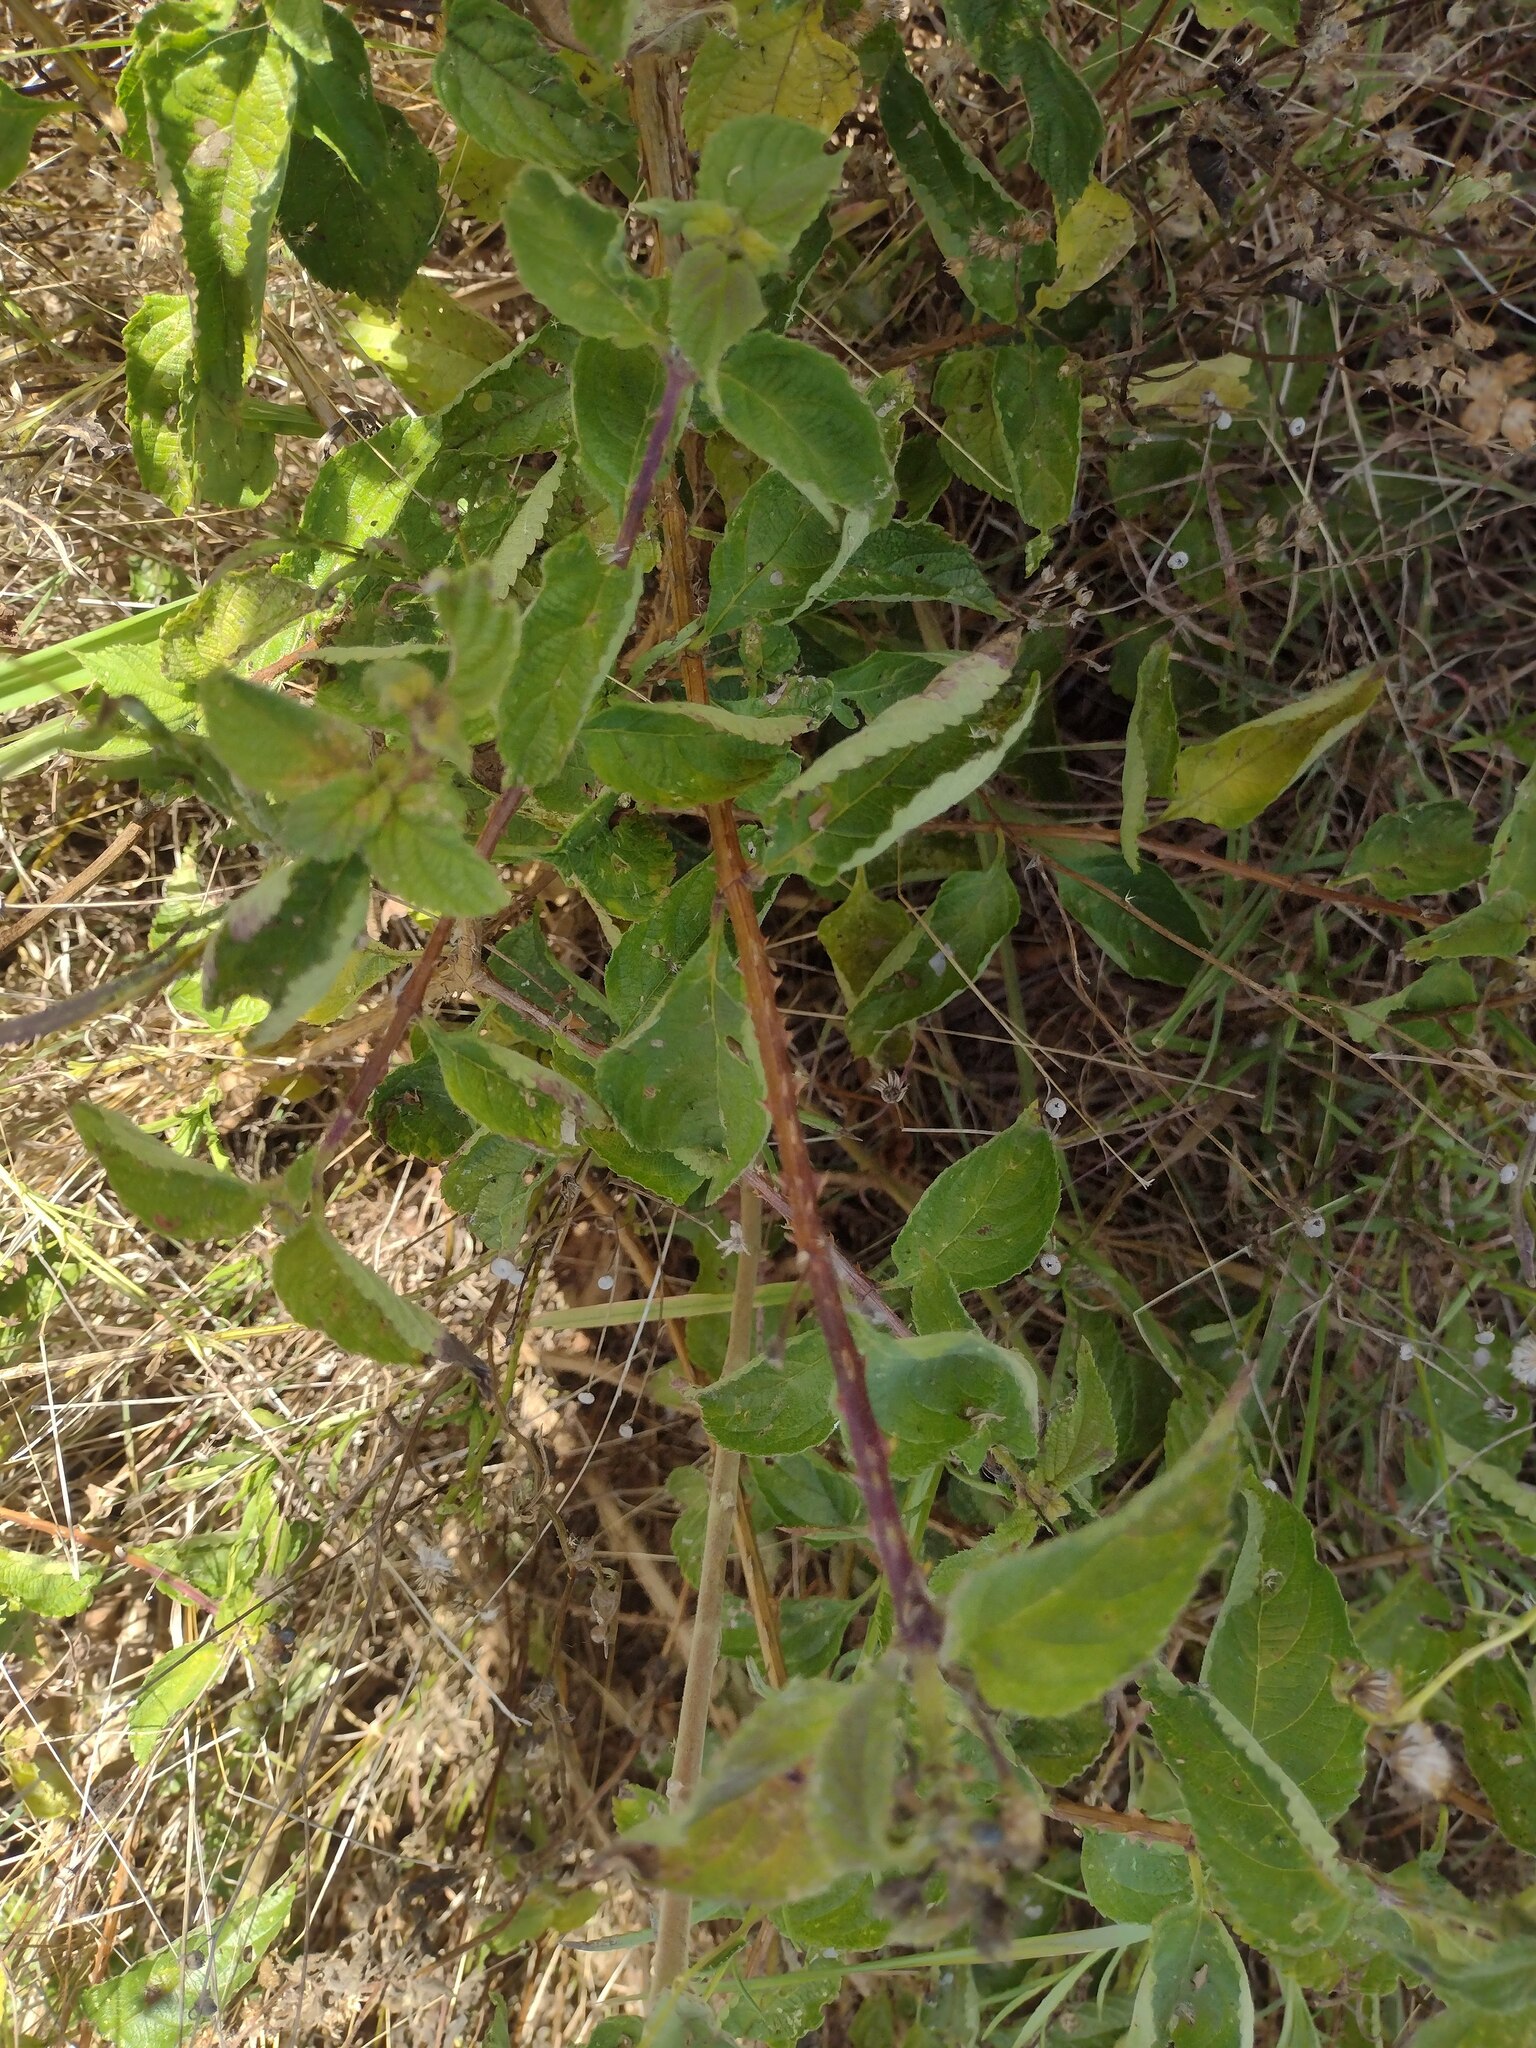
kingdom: Plantae
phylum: Tracheophyta
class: Magnoliopsida
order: Lamiales
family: Verbenaceae
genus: Lantana
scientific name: Lantana camara
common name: Lantana
